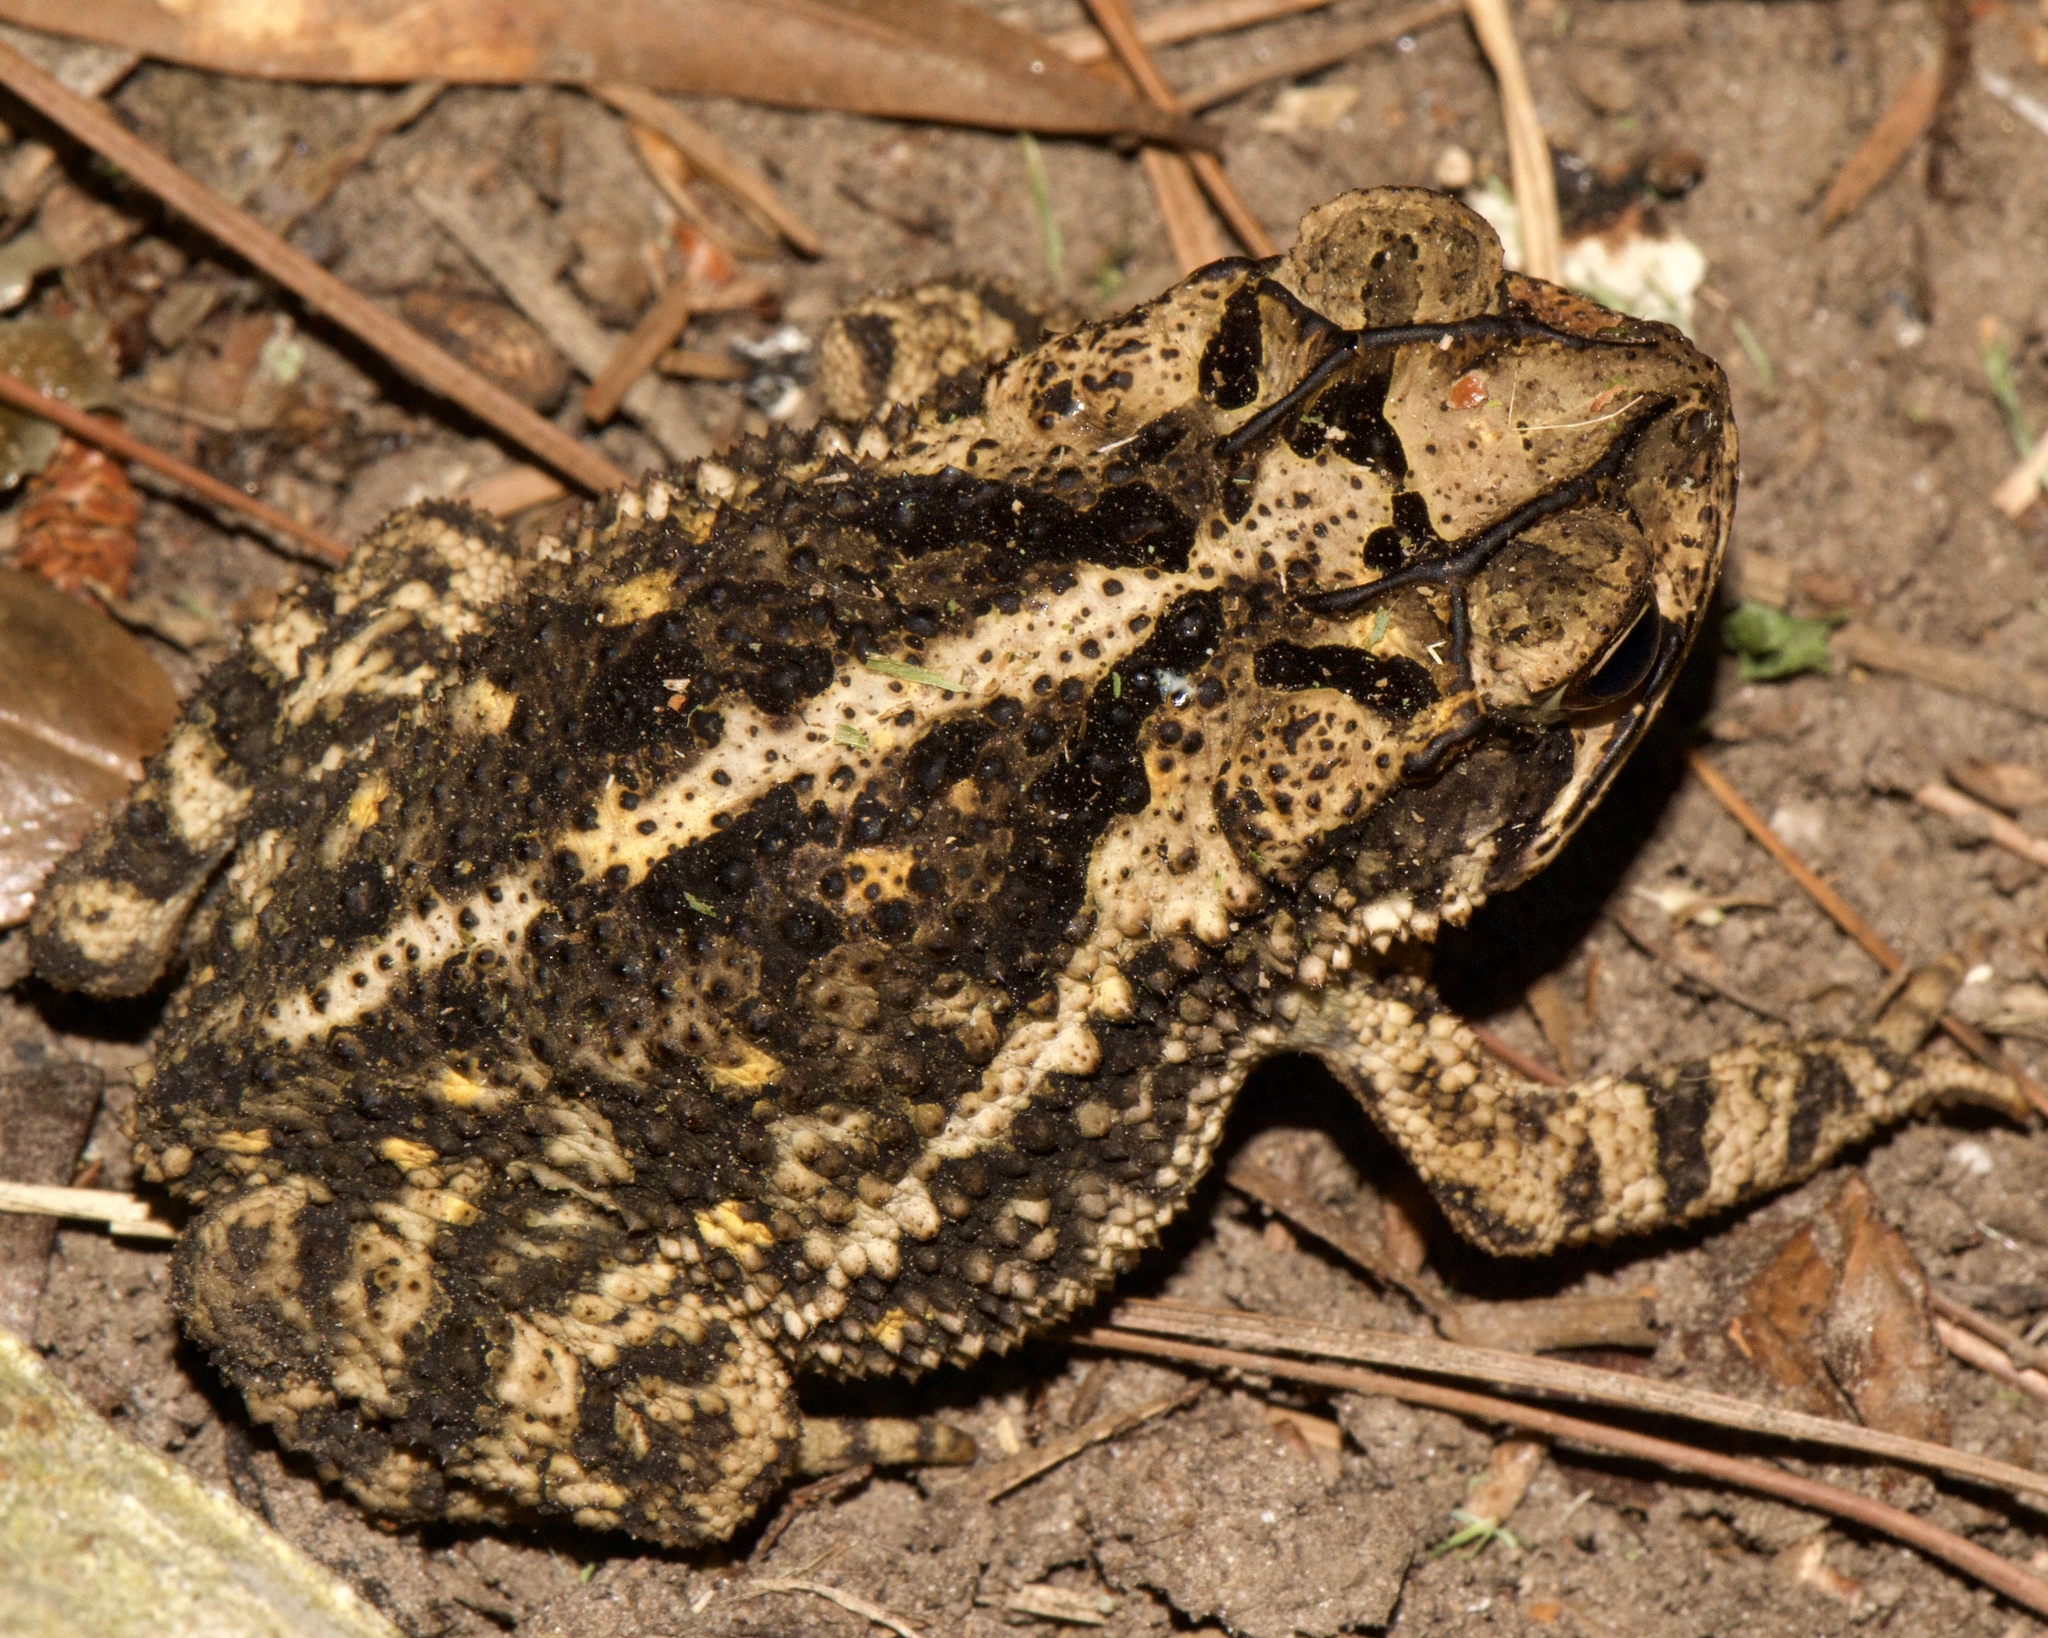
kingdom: Animalia
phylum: Chordata
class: Amphibia
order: Anura
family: Bufonidae
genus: Incilius
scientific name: Incilius nebulifer
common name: Gulf coast toad
